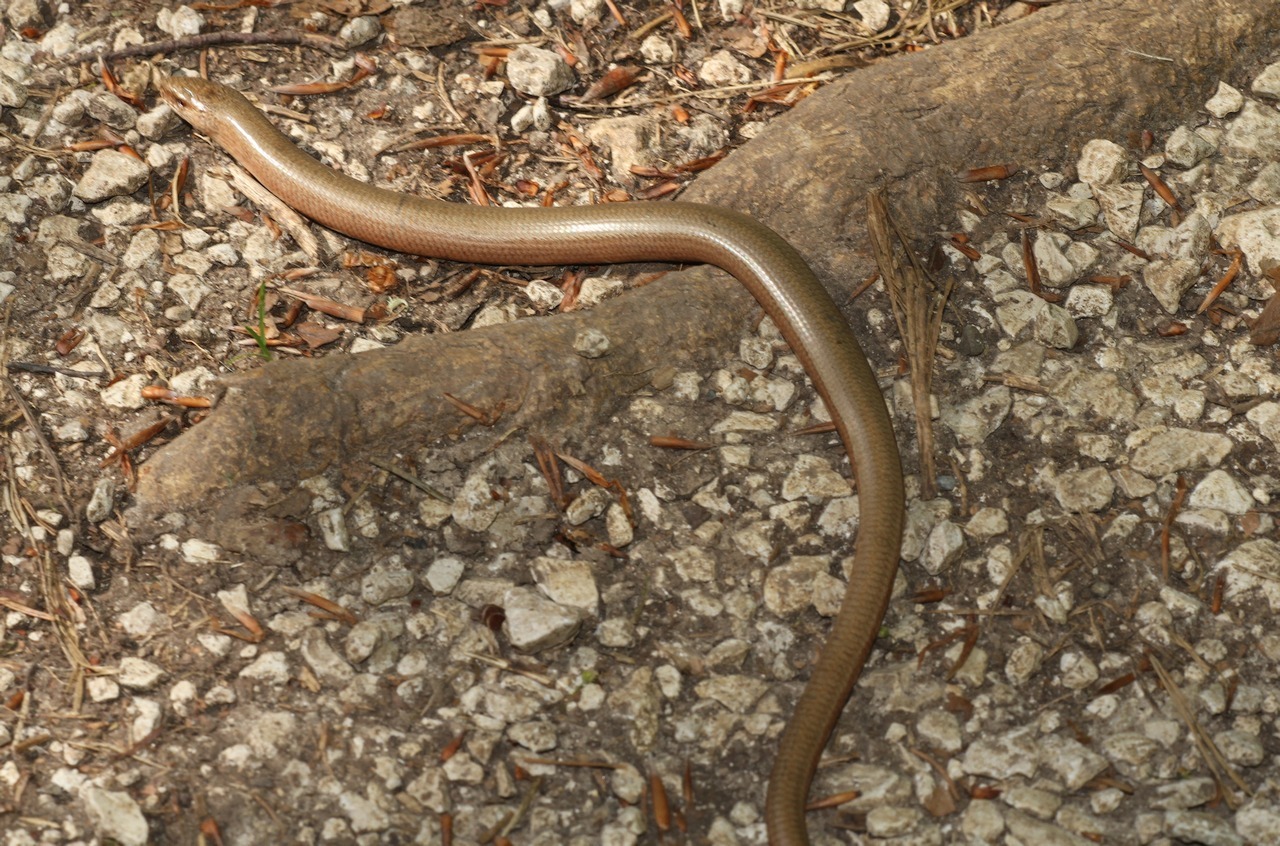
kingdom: Animalia
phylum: Chordata
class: Squamata
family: Anguidae
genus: Anguis
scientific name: Anguis fragilis
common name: Slow worm
